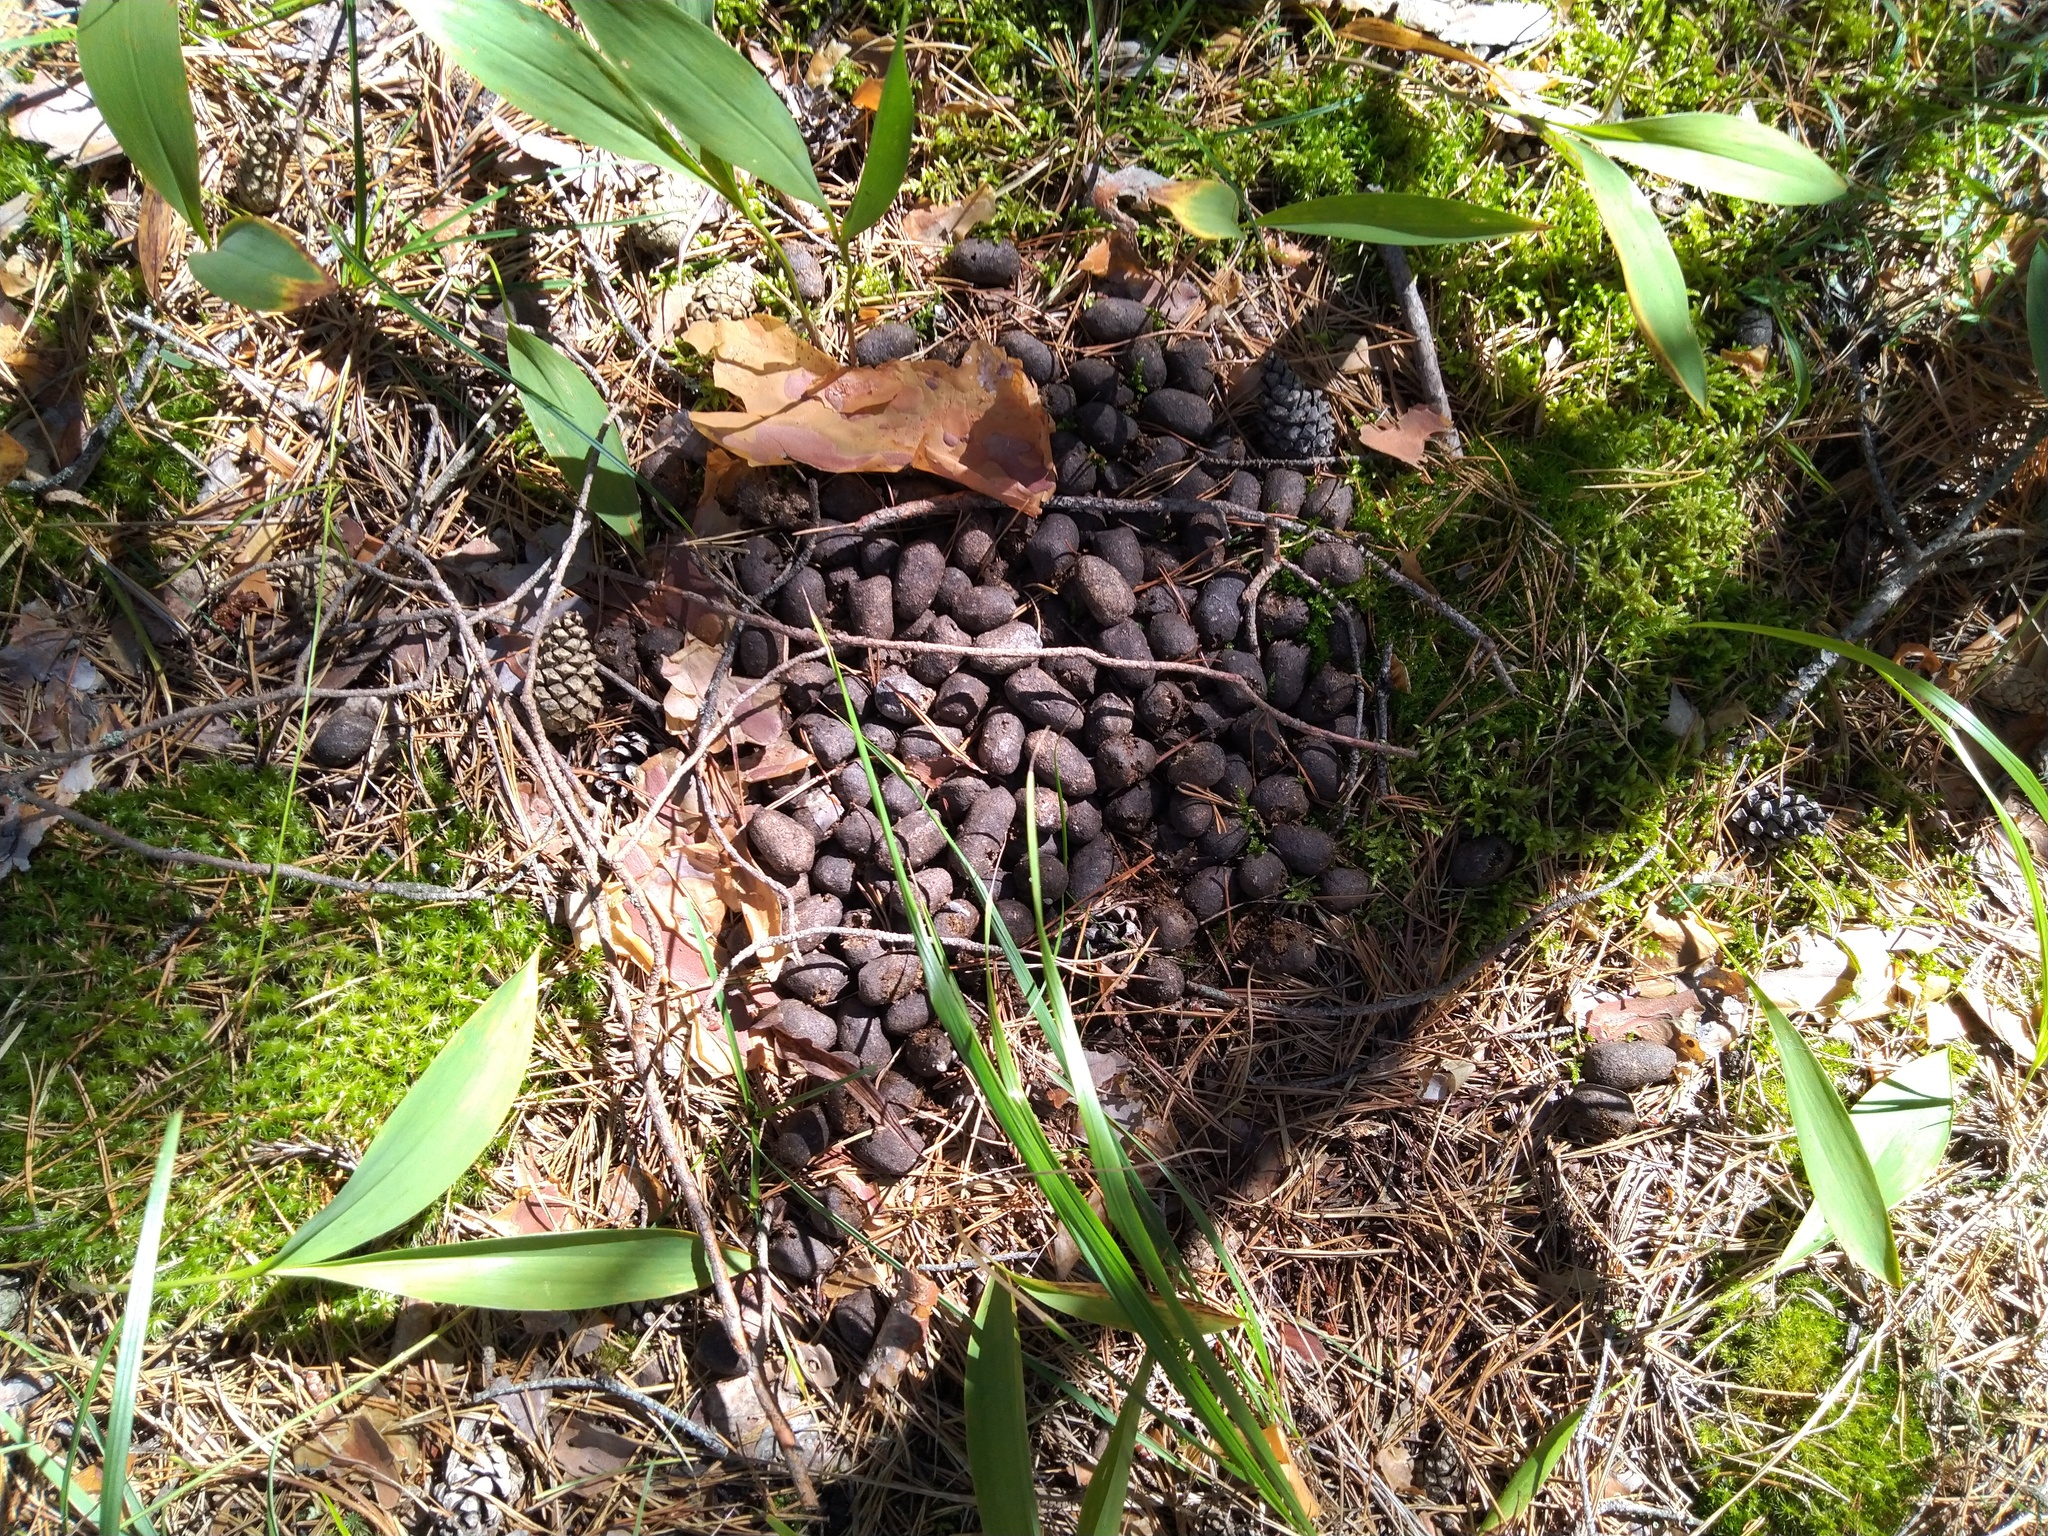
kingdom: Animalia
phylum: Chordata
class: Mammalia
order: Artiodactyla
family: Cervidae
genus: Alces
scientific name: Alces alces
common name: Moose
